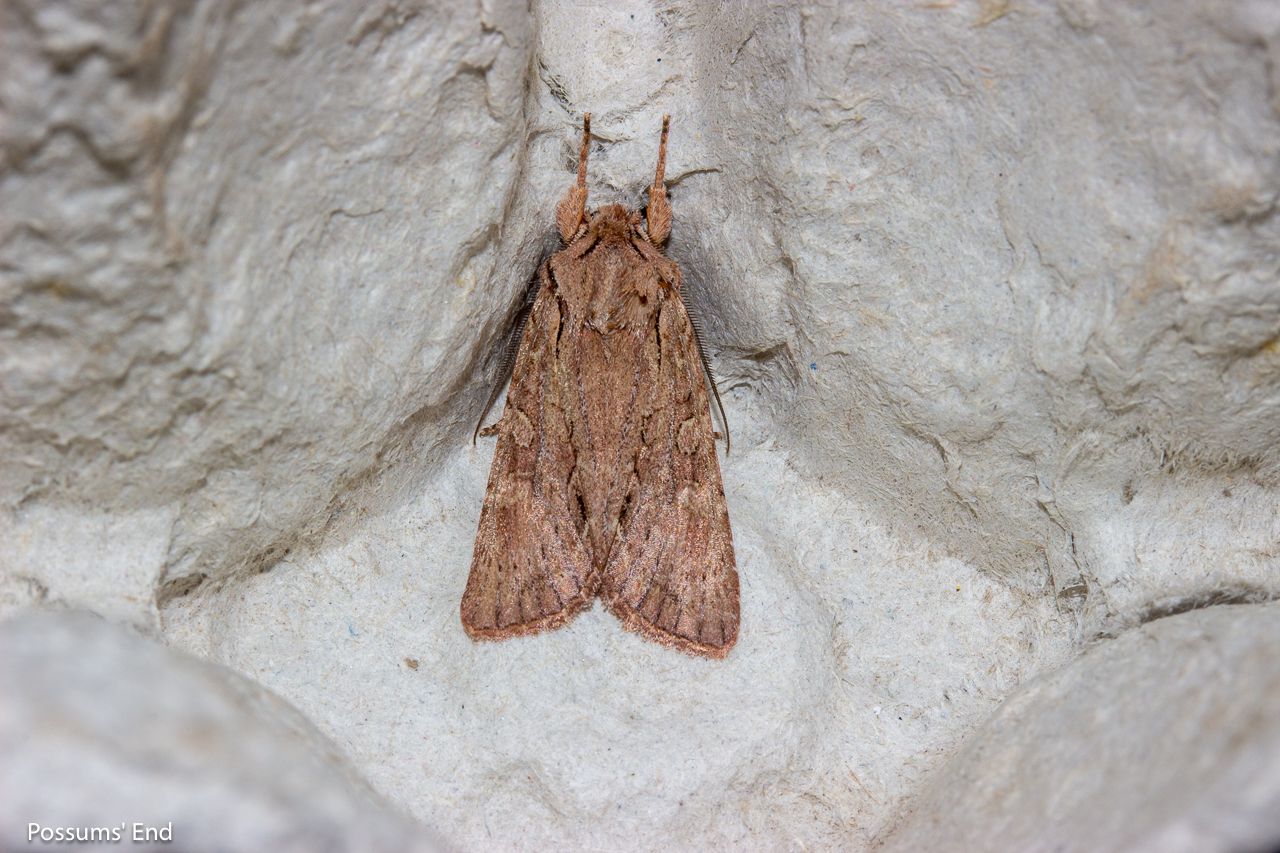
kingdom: Animalia
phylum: Arthropoda
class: Insecta
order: Lepidoptera
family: Noctuidae
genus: Ichneutica
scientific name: Ichneutica
